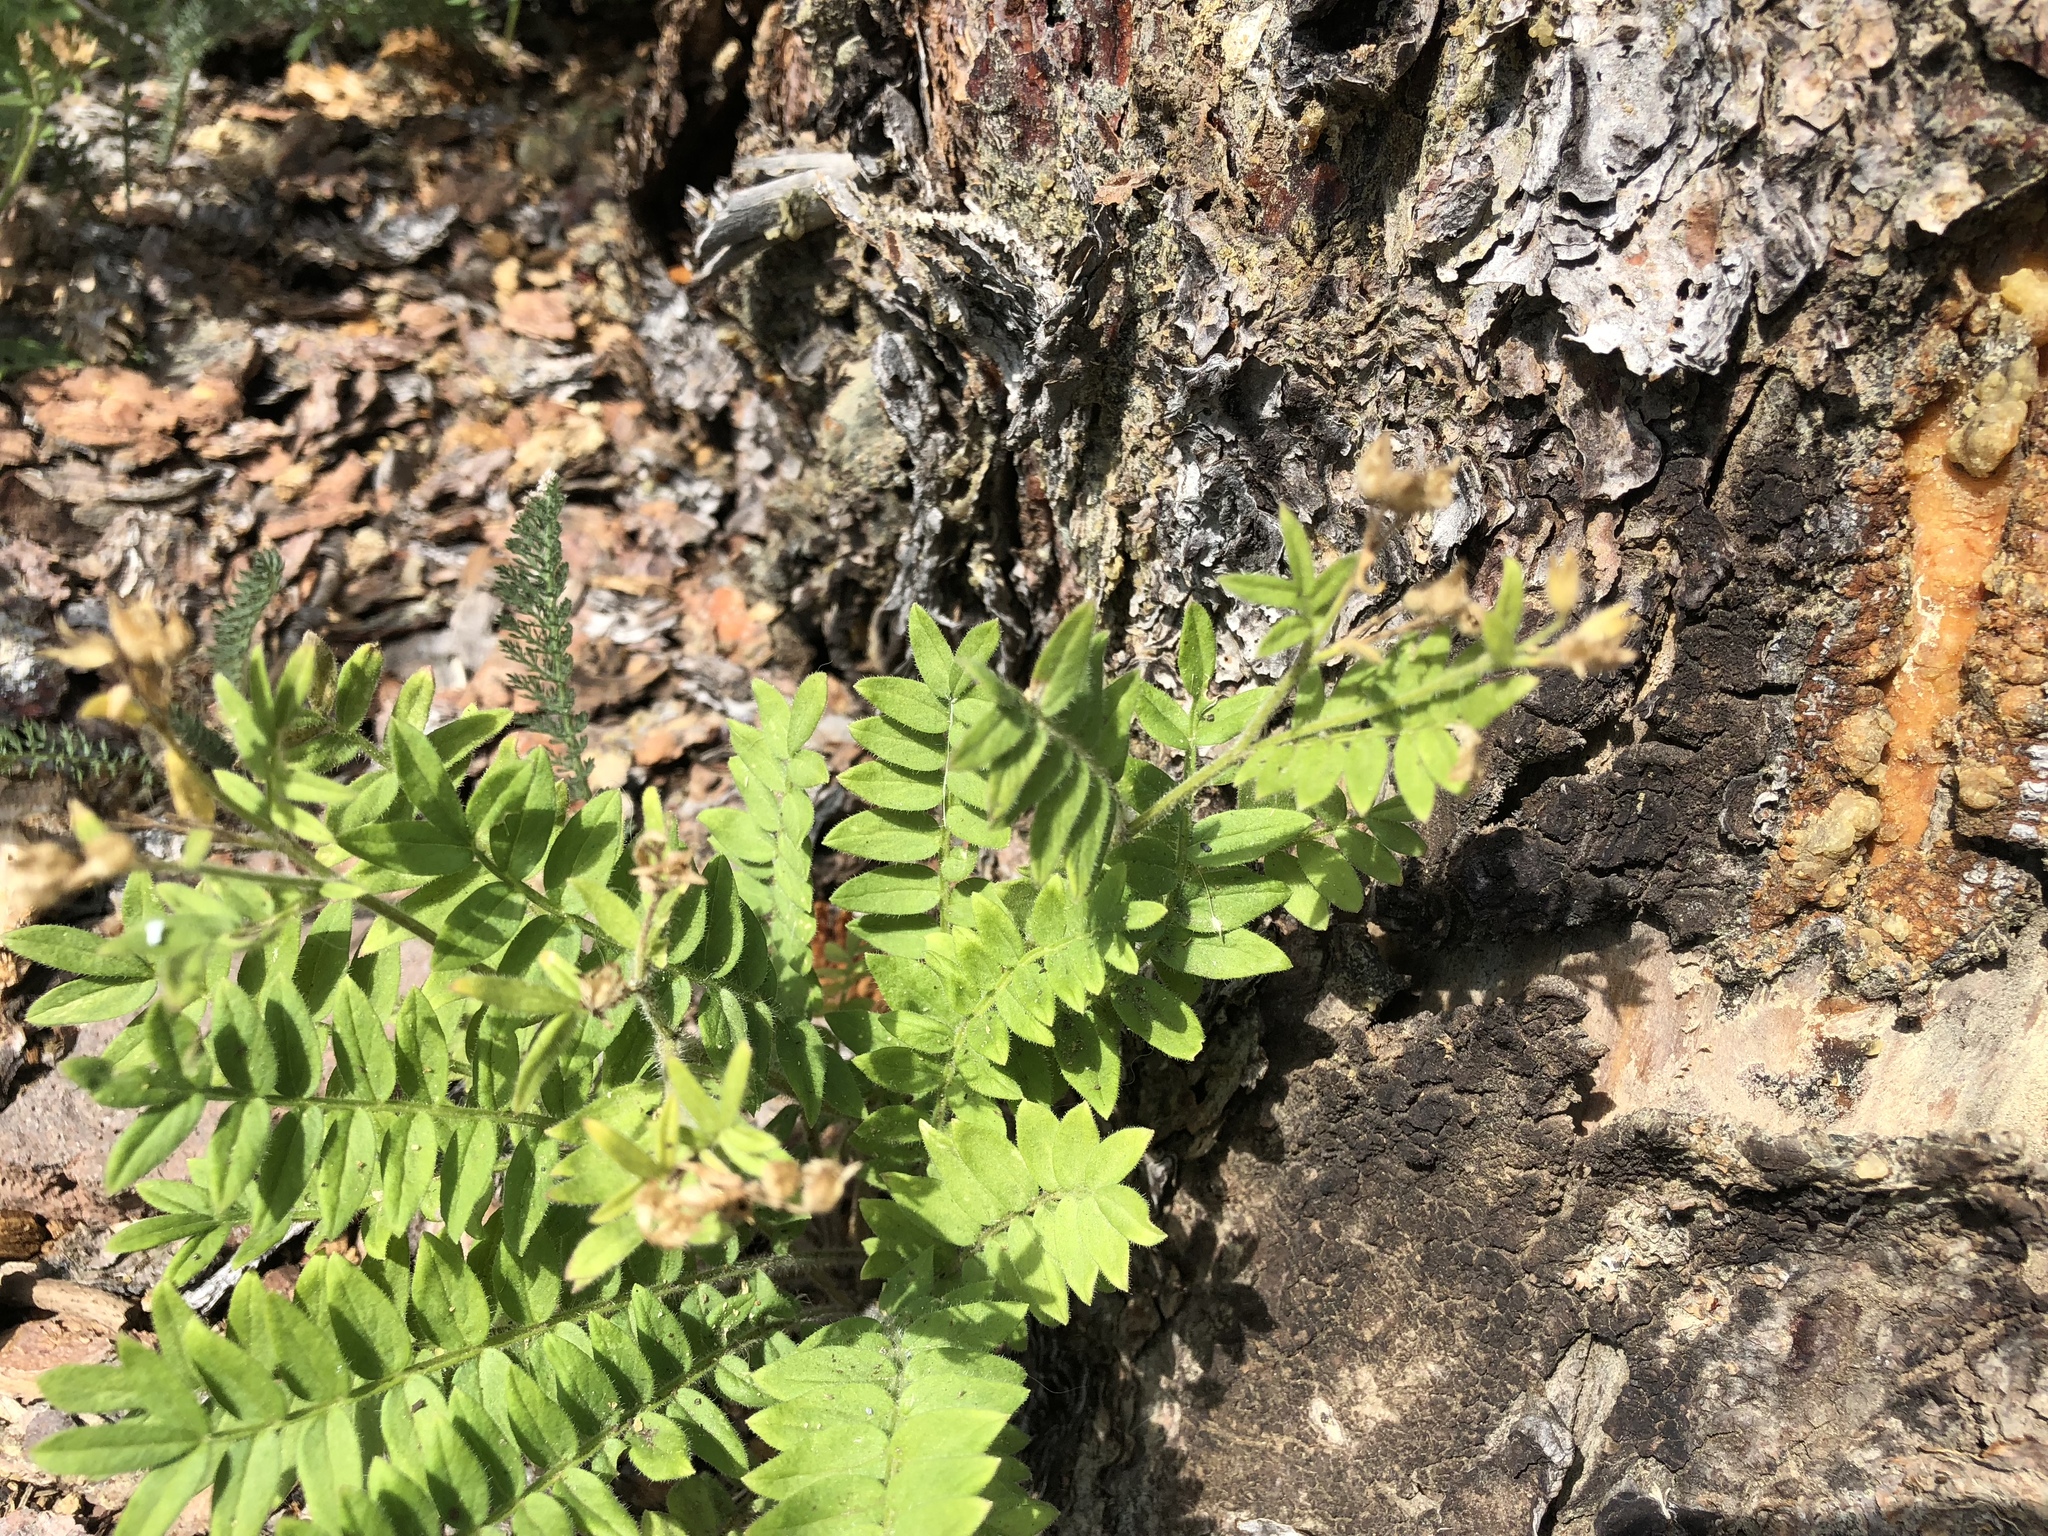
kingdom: Plantae
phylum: Tracheophyta
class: Magnoliopsida
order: Ericales
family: Polemoniaceae
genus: Polemonium
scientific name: Polemonium pulcherrimum
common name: Short jacob's-ladder
